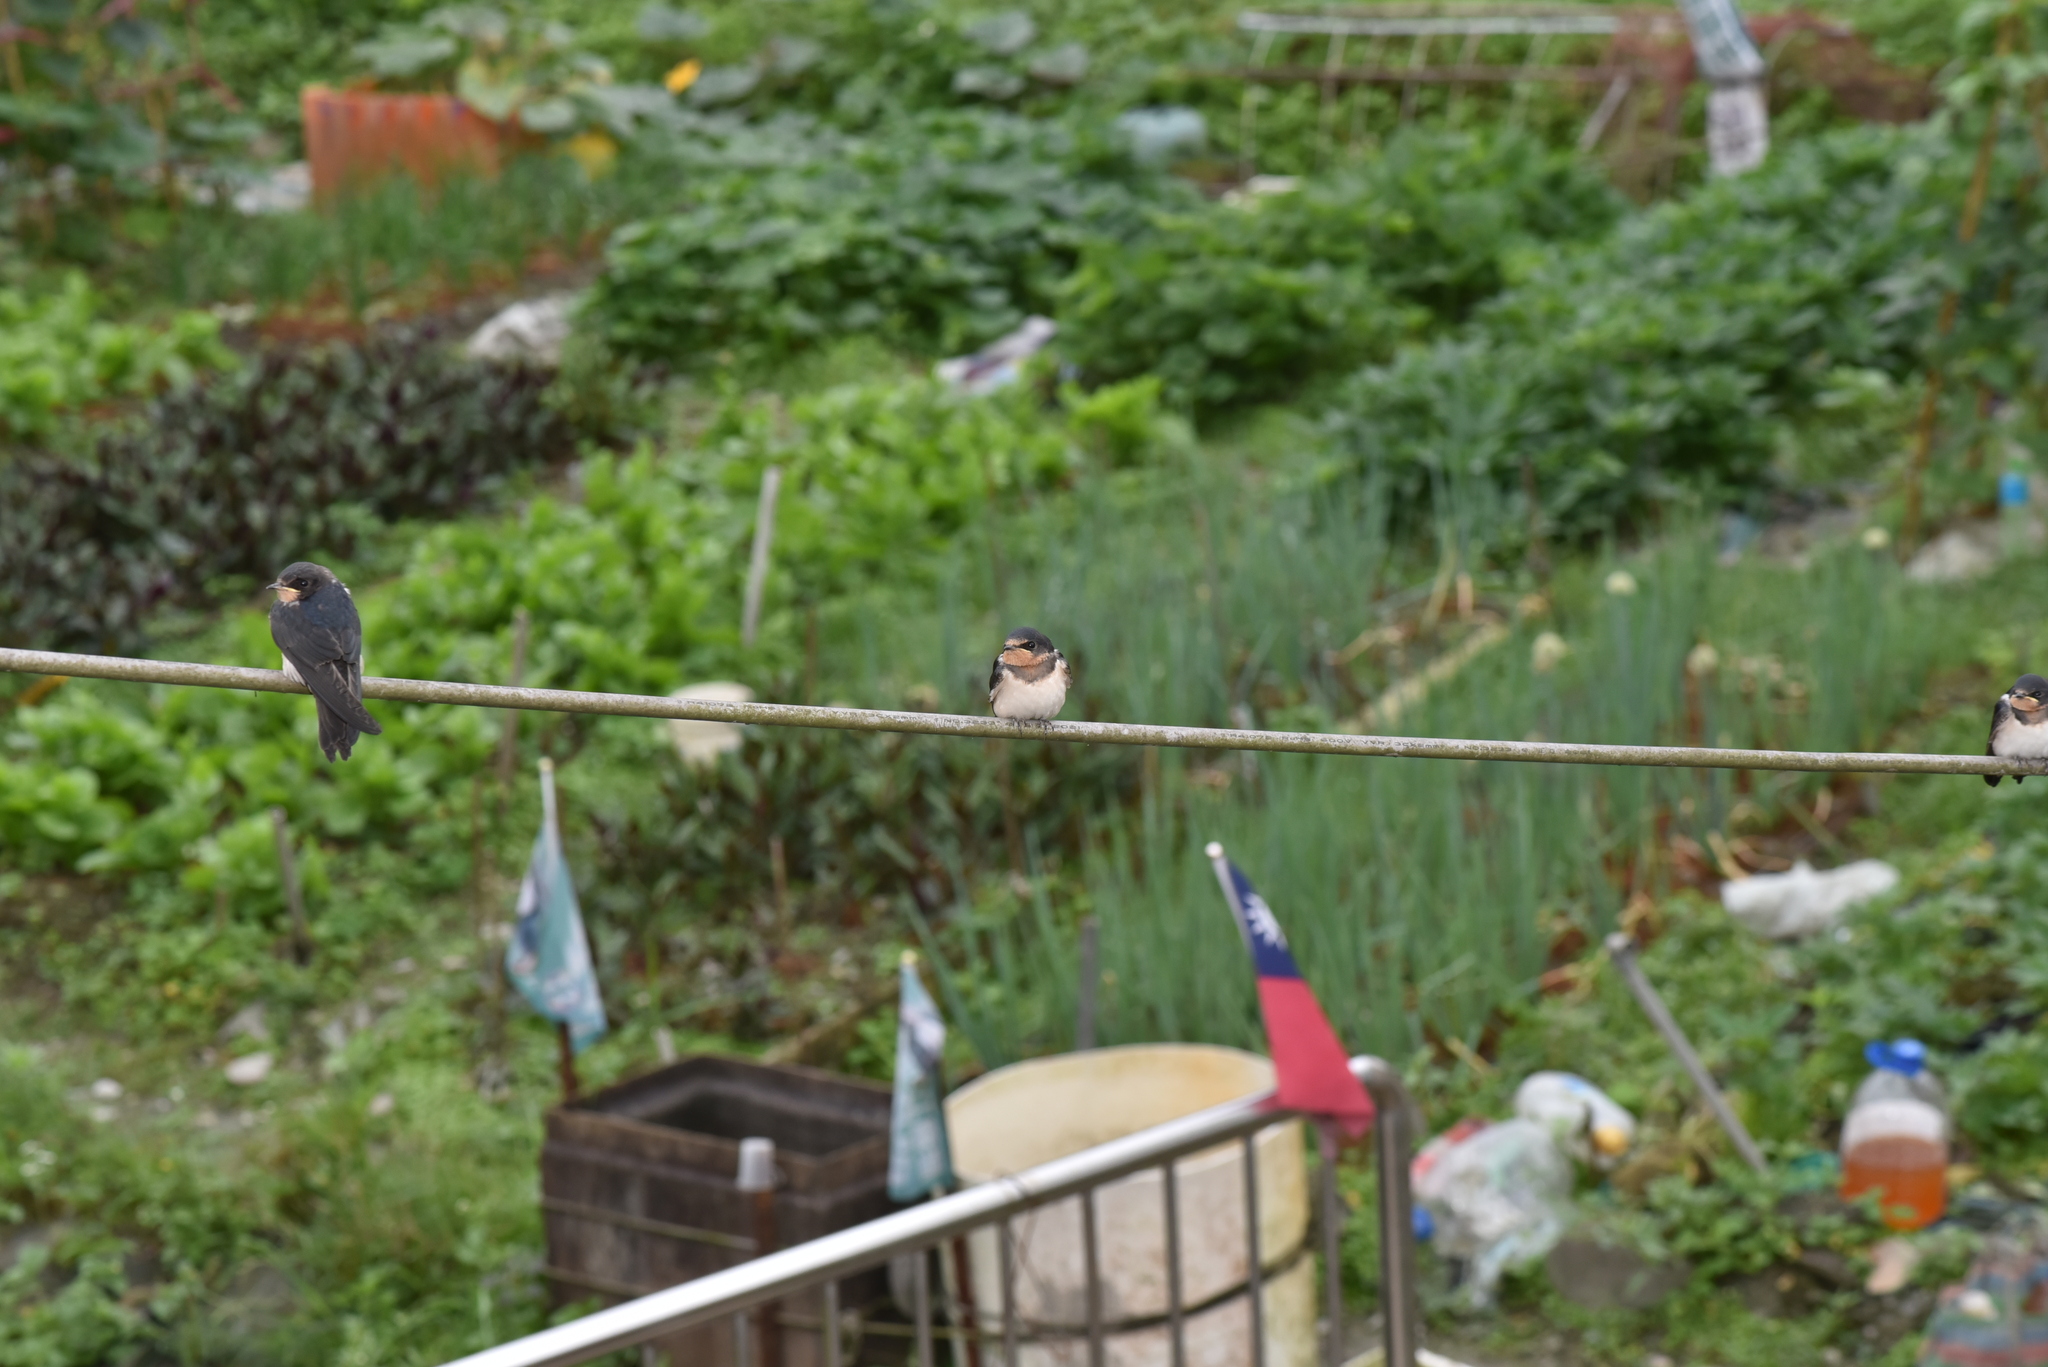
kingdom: Animalia
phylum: Chordata
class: Aves
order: Passeriformes
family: Hirundinidae
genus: Hirundo
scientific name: Hirundo rustica
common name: Barn swallow
